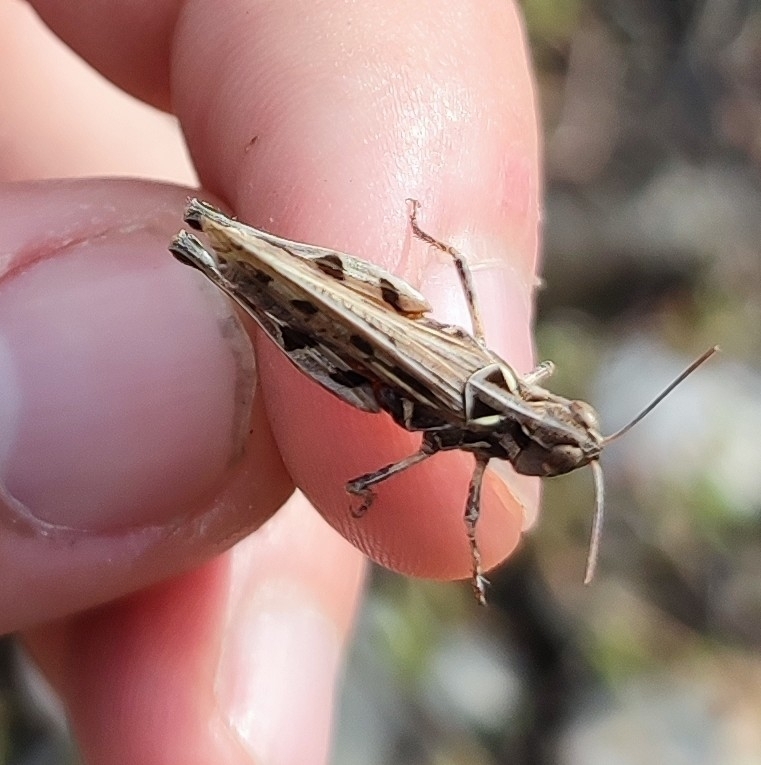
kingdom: Animalia
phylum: Arthropoda
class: Insecta
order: Orthoptera
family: Acrididae
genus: Dociostaurus
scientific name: Dociostaurus jagoi
